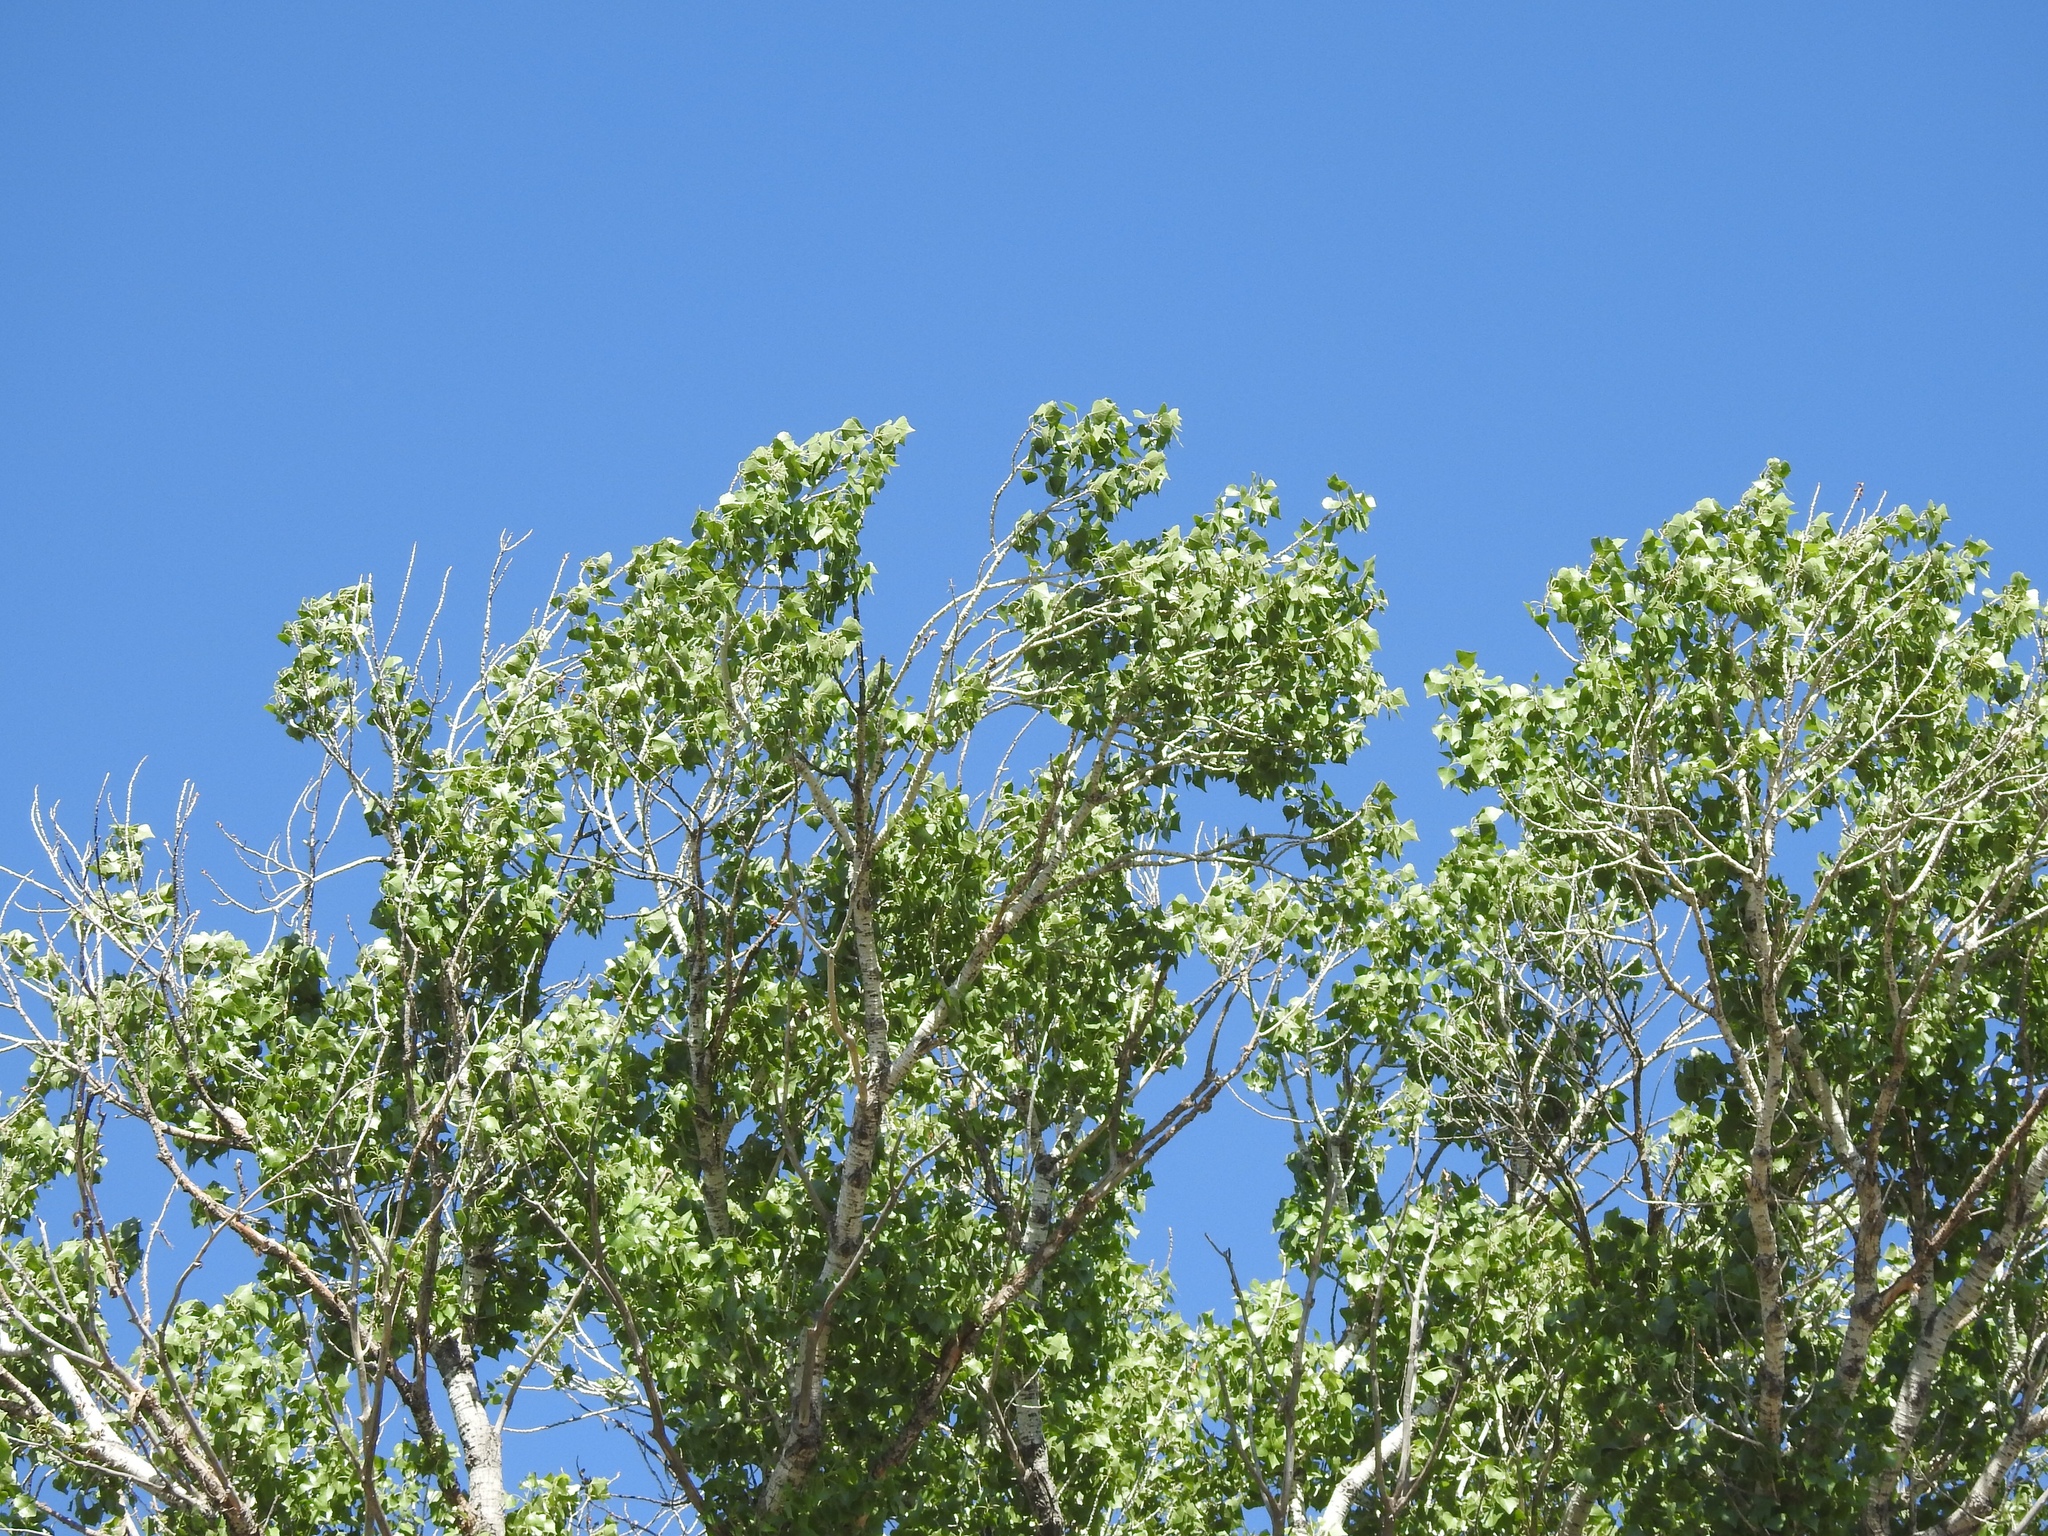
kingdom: Plantae
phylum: Tracheophyta
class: Magnoliopsida
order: Malpighiales
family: Salicaceae
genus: Populus
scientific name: Populus fremontii
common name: Fremont's cottonwood
